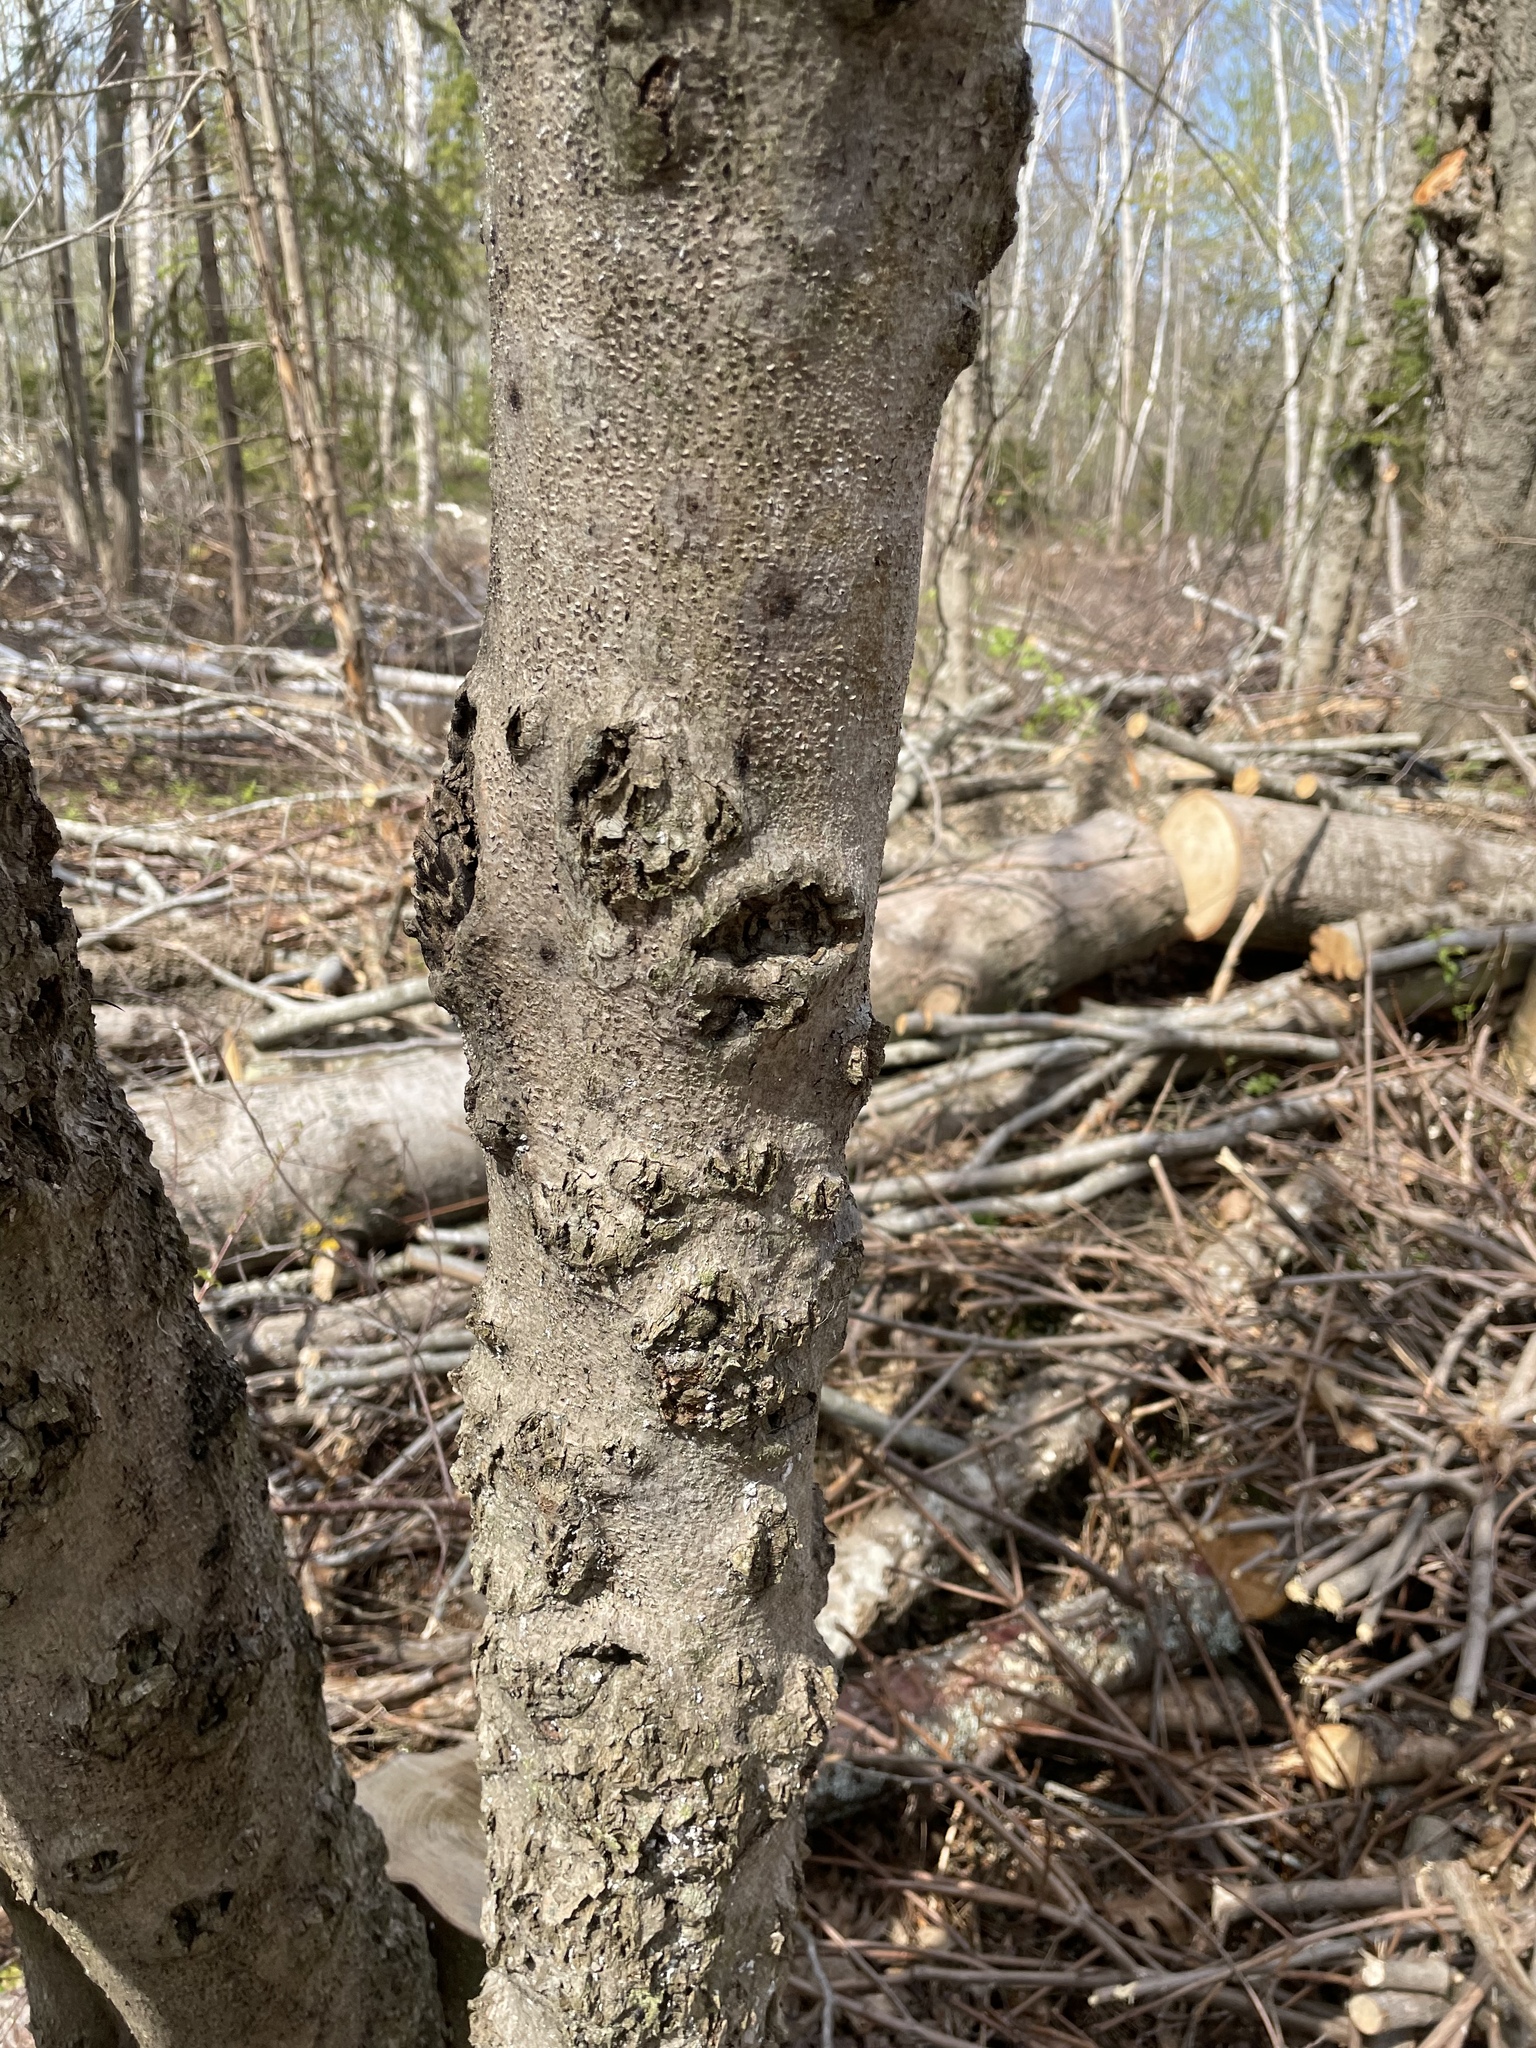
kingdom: Fungi
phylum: Ascomycota
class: Sordariomycetes
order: Hypocreales
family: Nectriaceae
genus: Neonectria
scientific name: Neonectria faginata
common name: Beech bark canker
